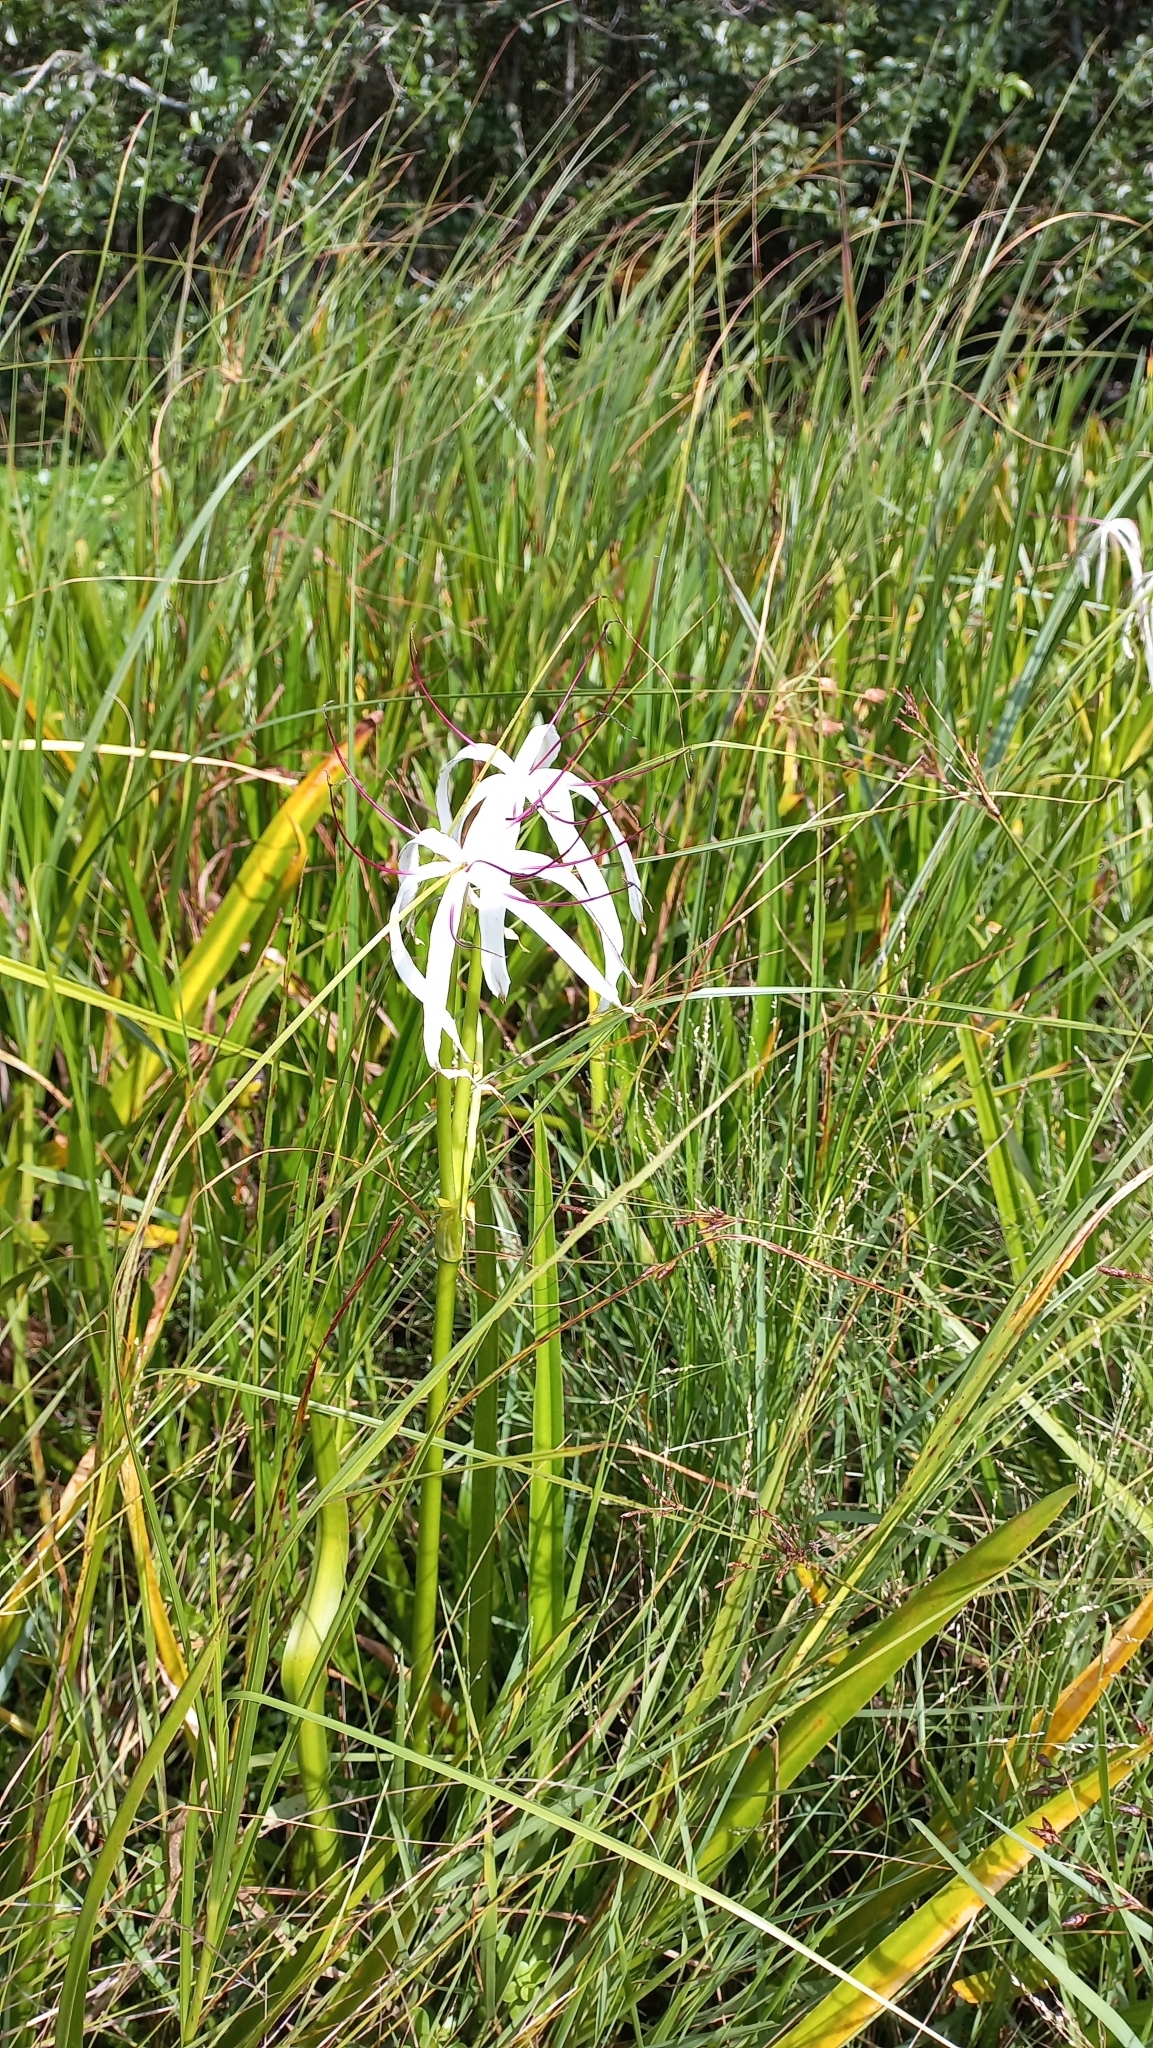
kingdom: Plantae
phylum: Tracheophyta
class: Liliopsida
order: Asparagales
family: Amaryllidaceae
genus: Crinum
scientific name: Crinum americanum
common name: Florida swamp-lily
